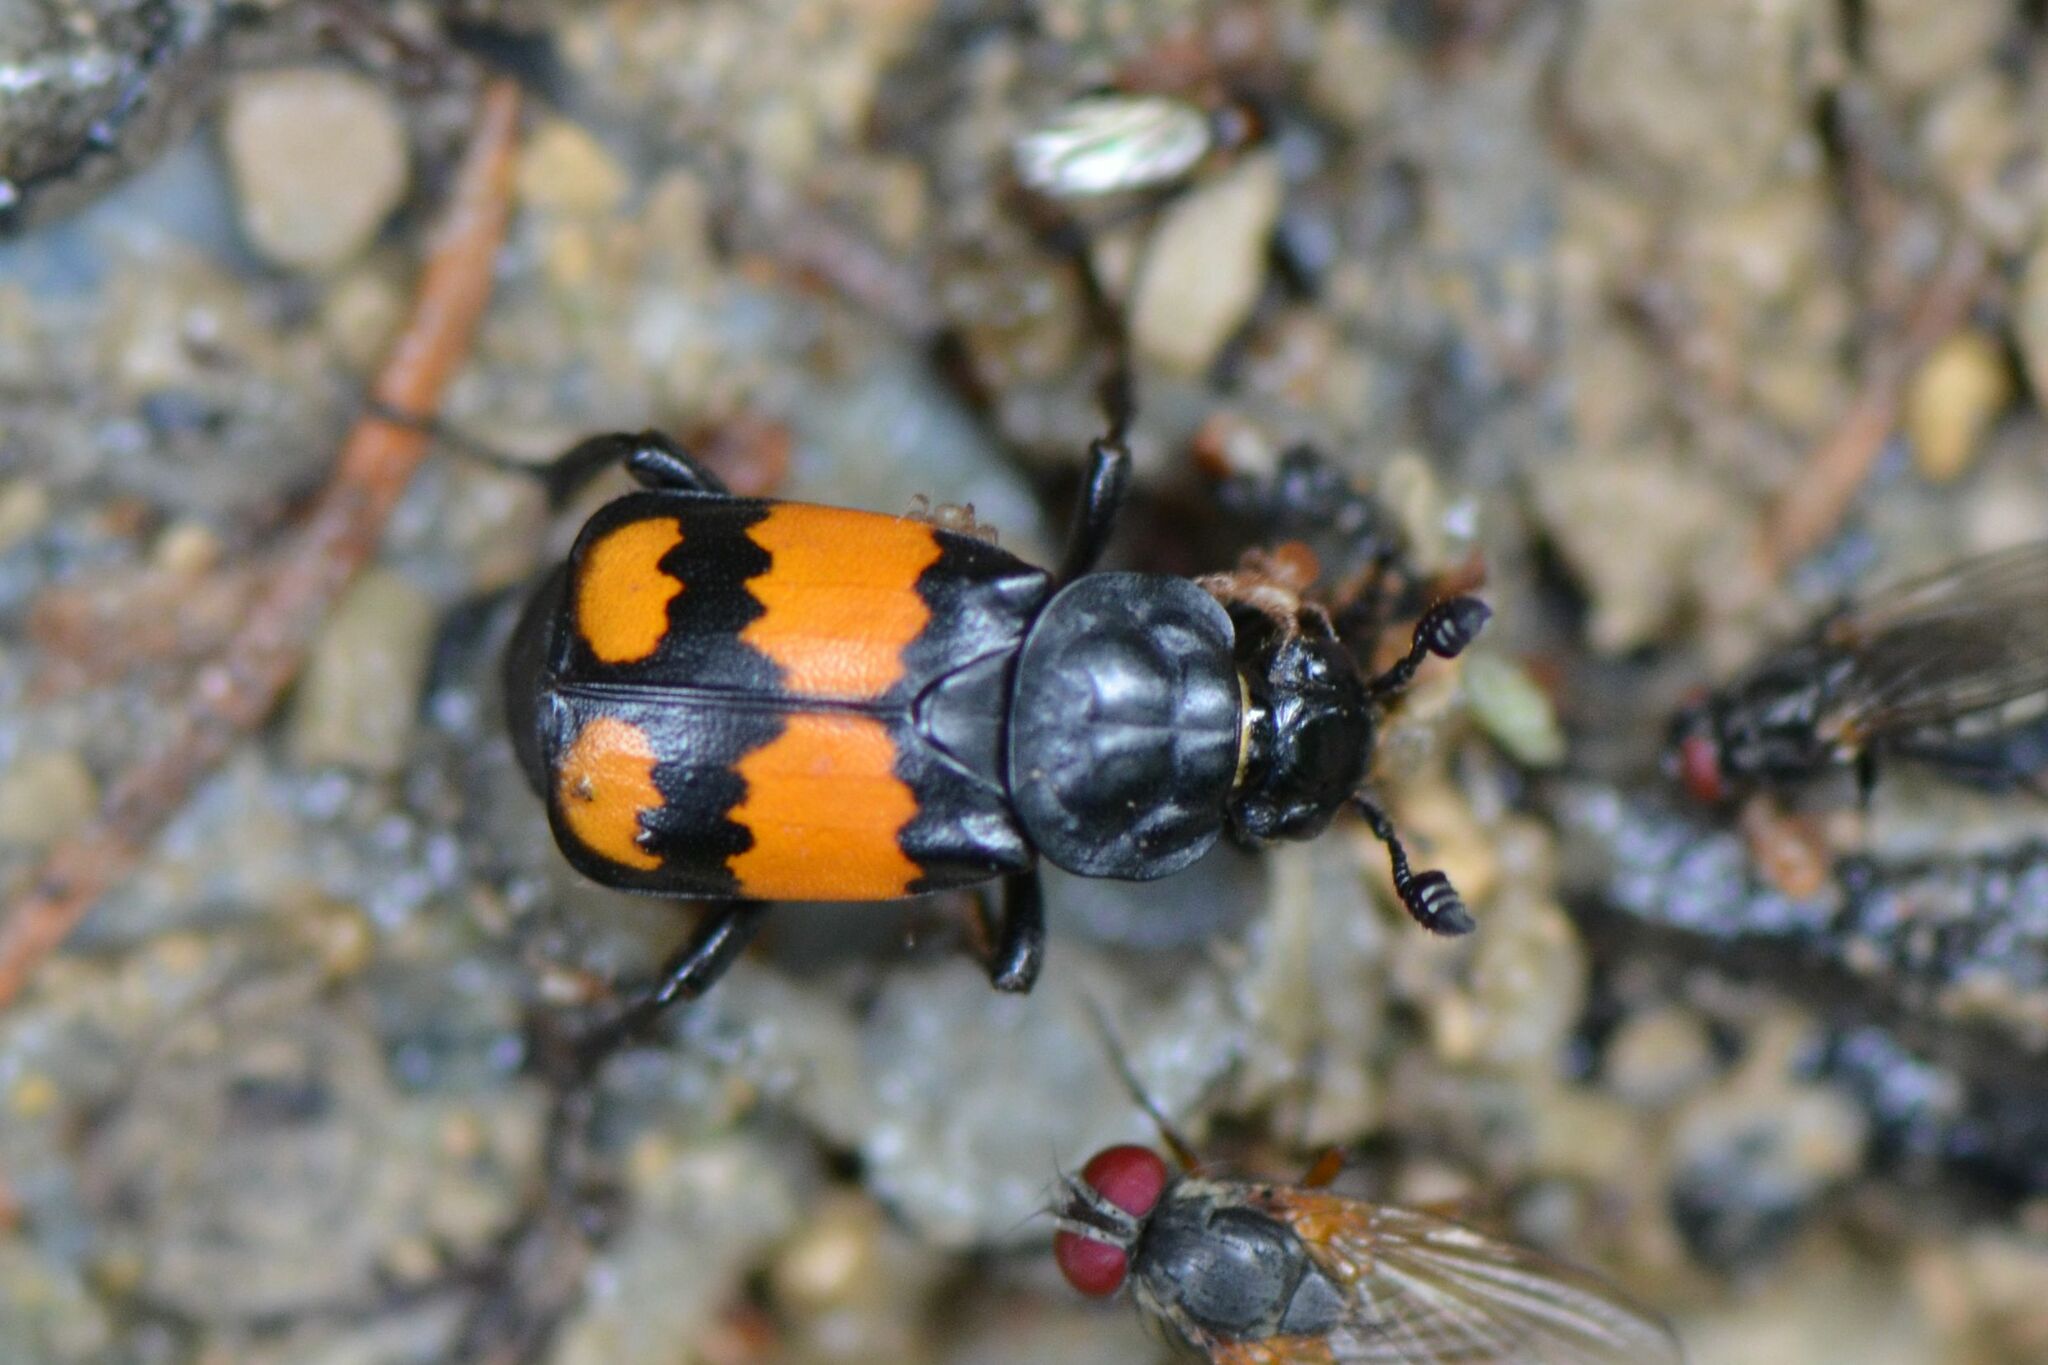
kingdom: Animalia
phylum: Arthropoda
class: Insecta
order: Coleoptera
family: Staphylinidae
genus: Nicrophorus
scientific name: Nicrophorus vespilloides
